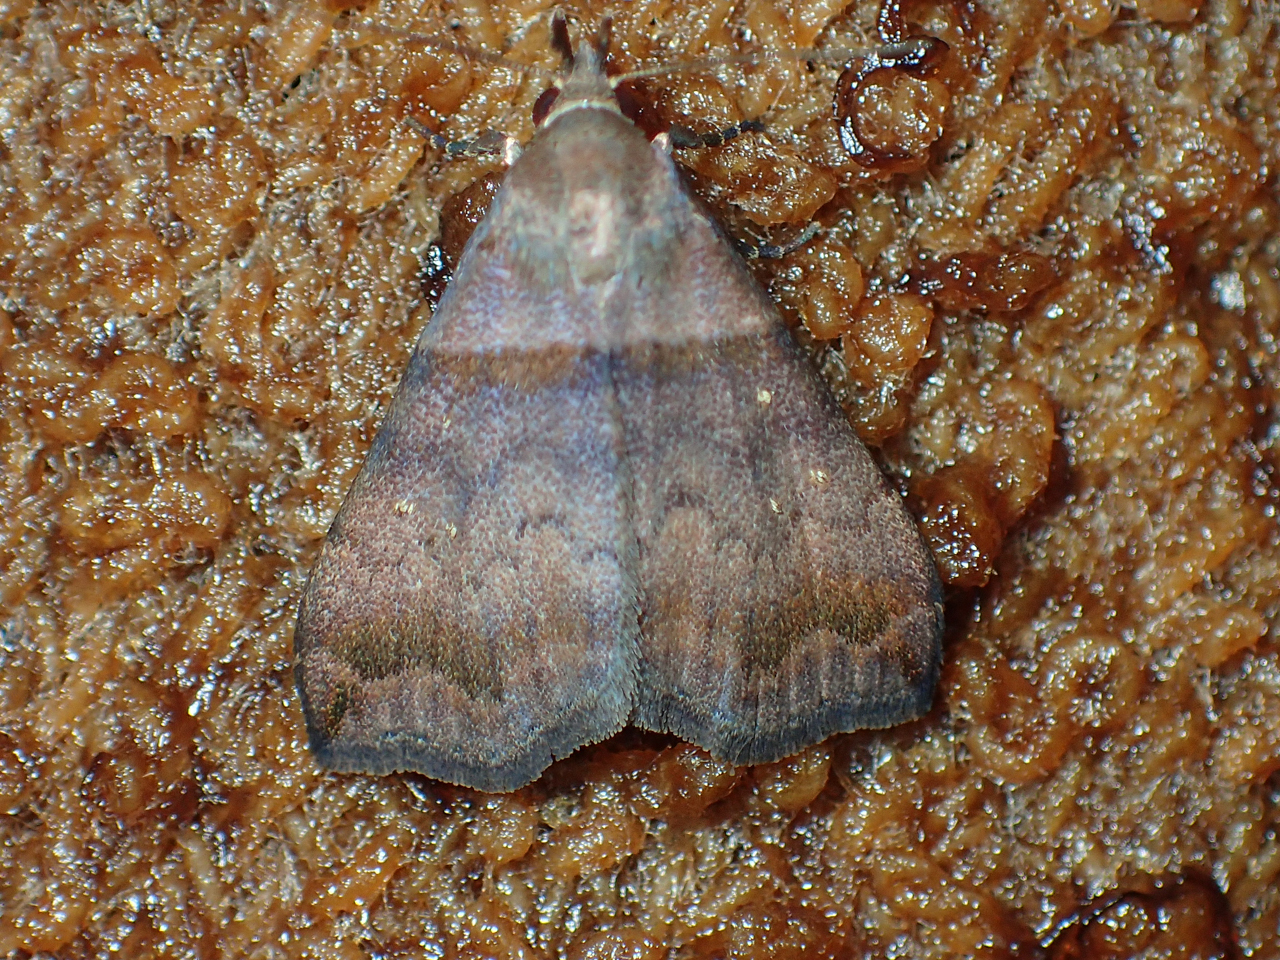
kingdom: Animalia
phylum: Arthropoda
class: Insecta
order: Lepidoptera
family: Erebidae
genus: Lascoria
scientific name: Lascoria ambigualis
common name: Ambiguous moth
